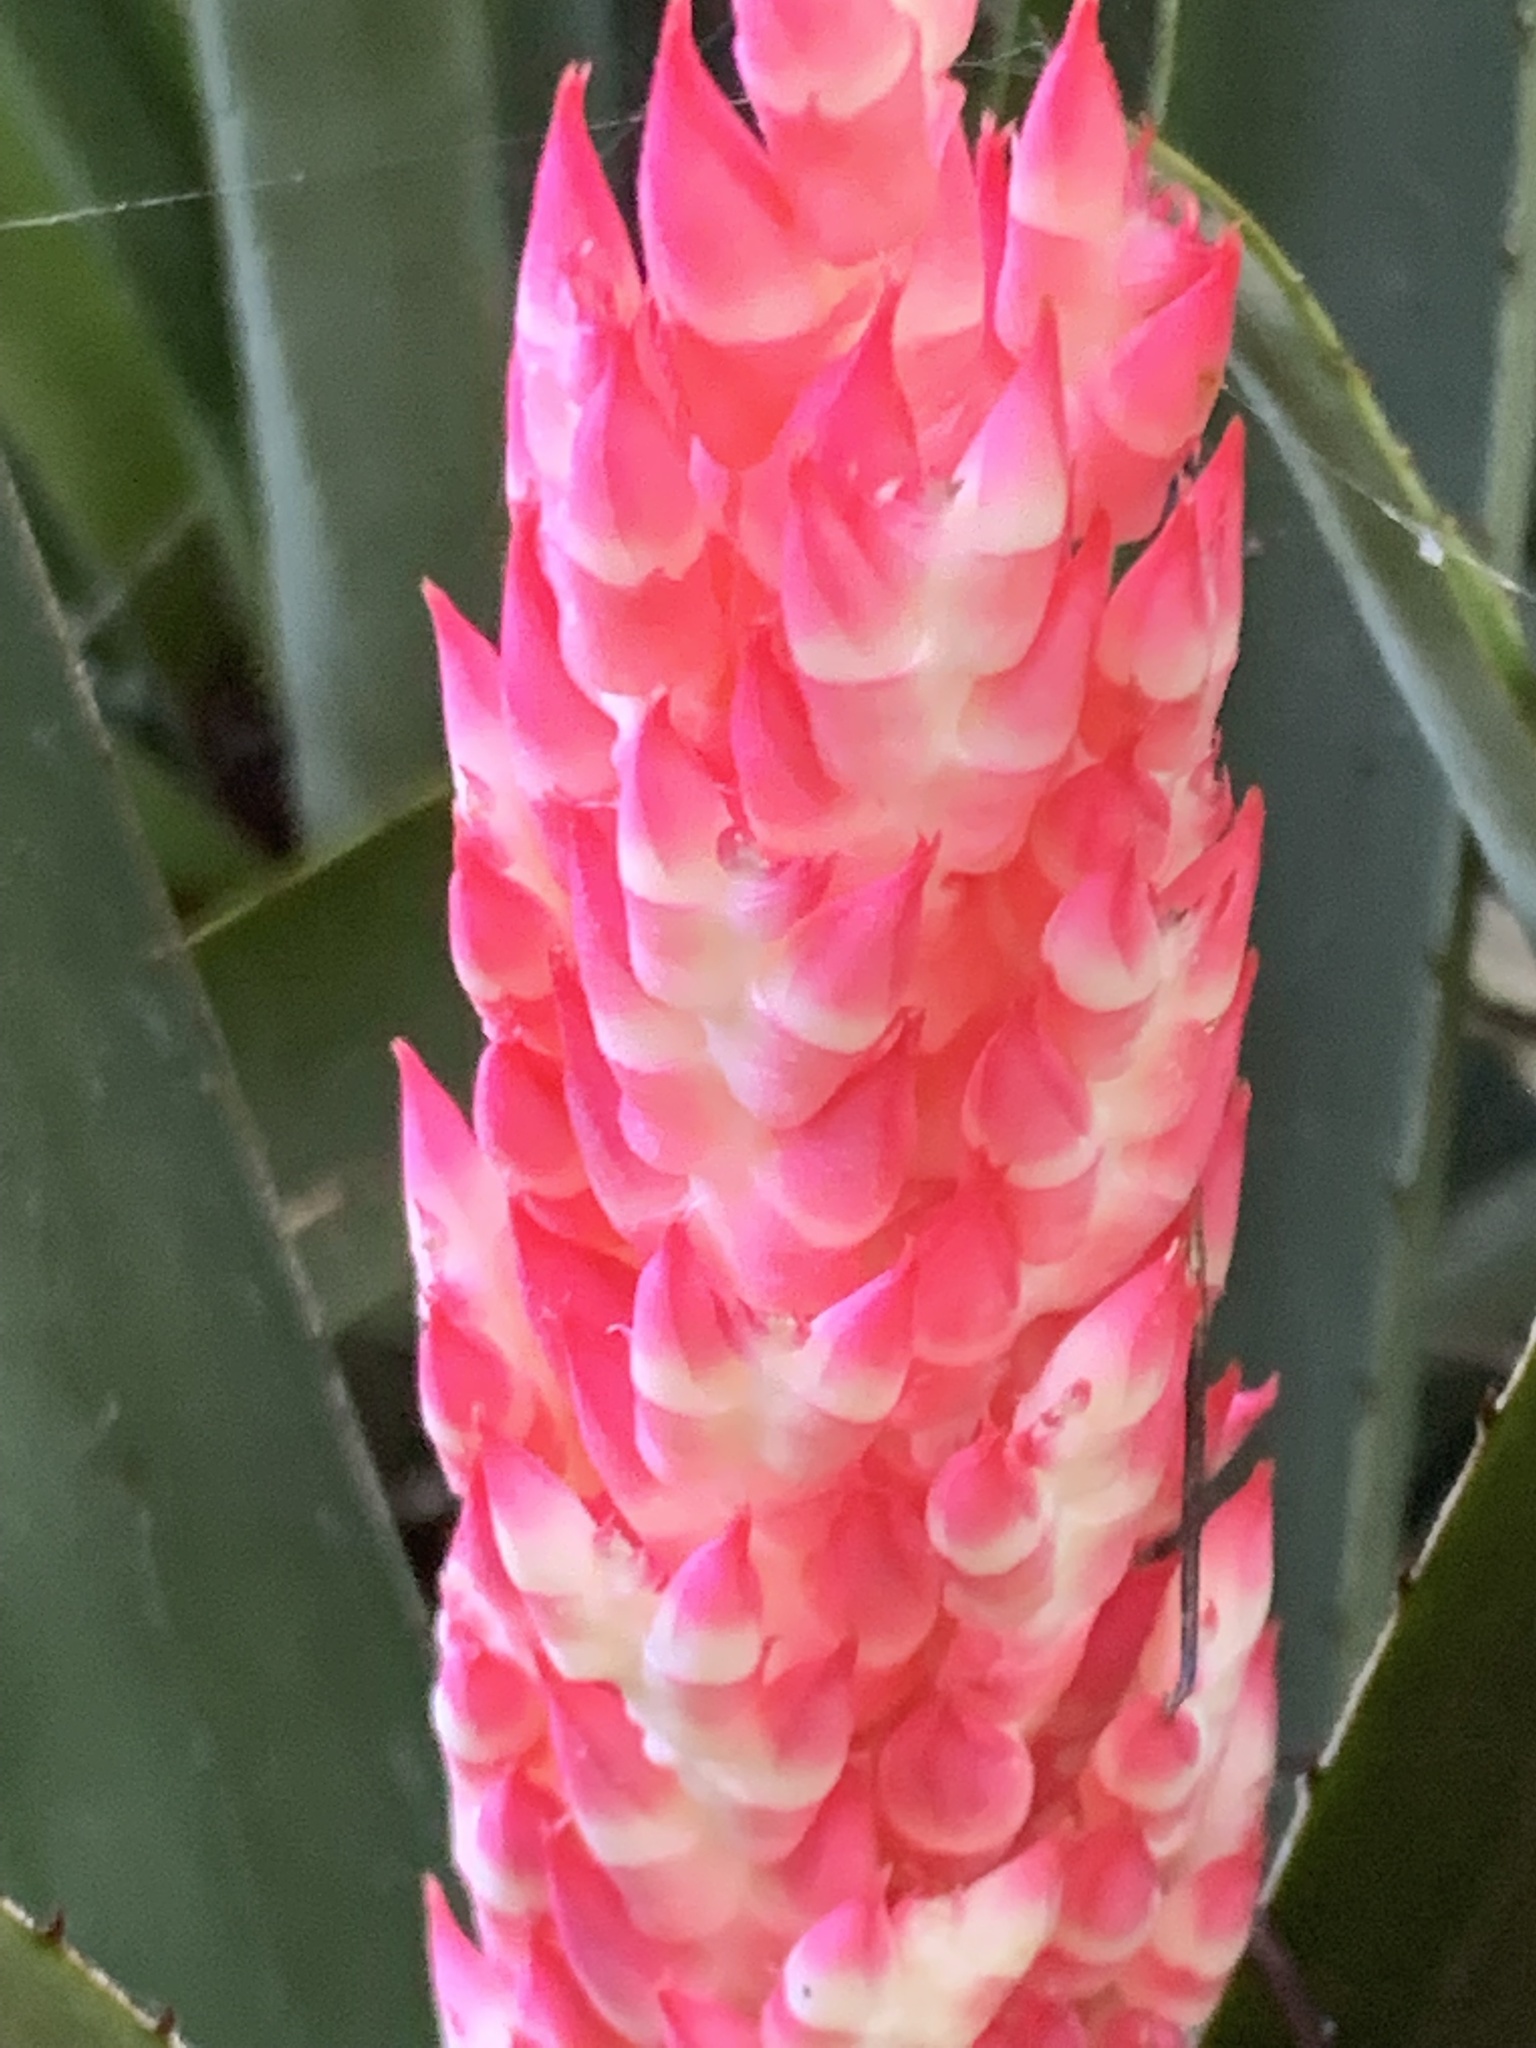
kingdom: Plantae
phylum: Tracheophyta
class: Liliopsida
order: Poales
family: Bromeliaceae
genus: Aechmea
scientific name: Aechmea distichantha
